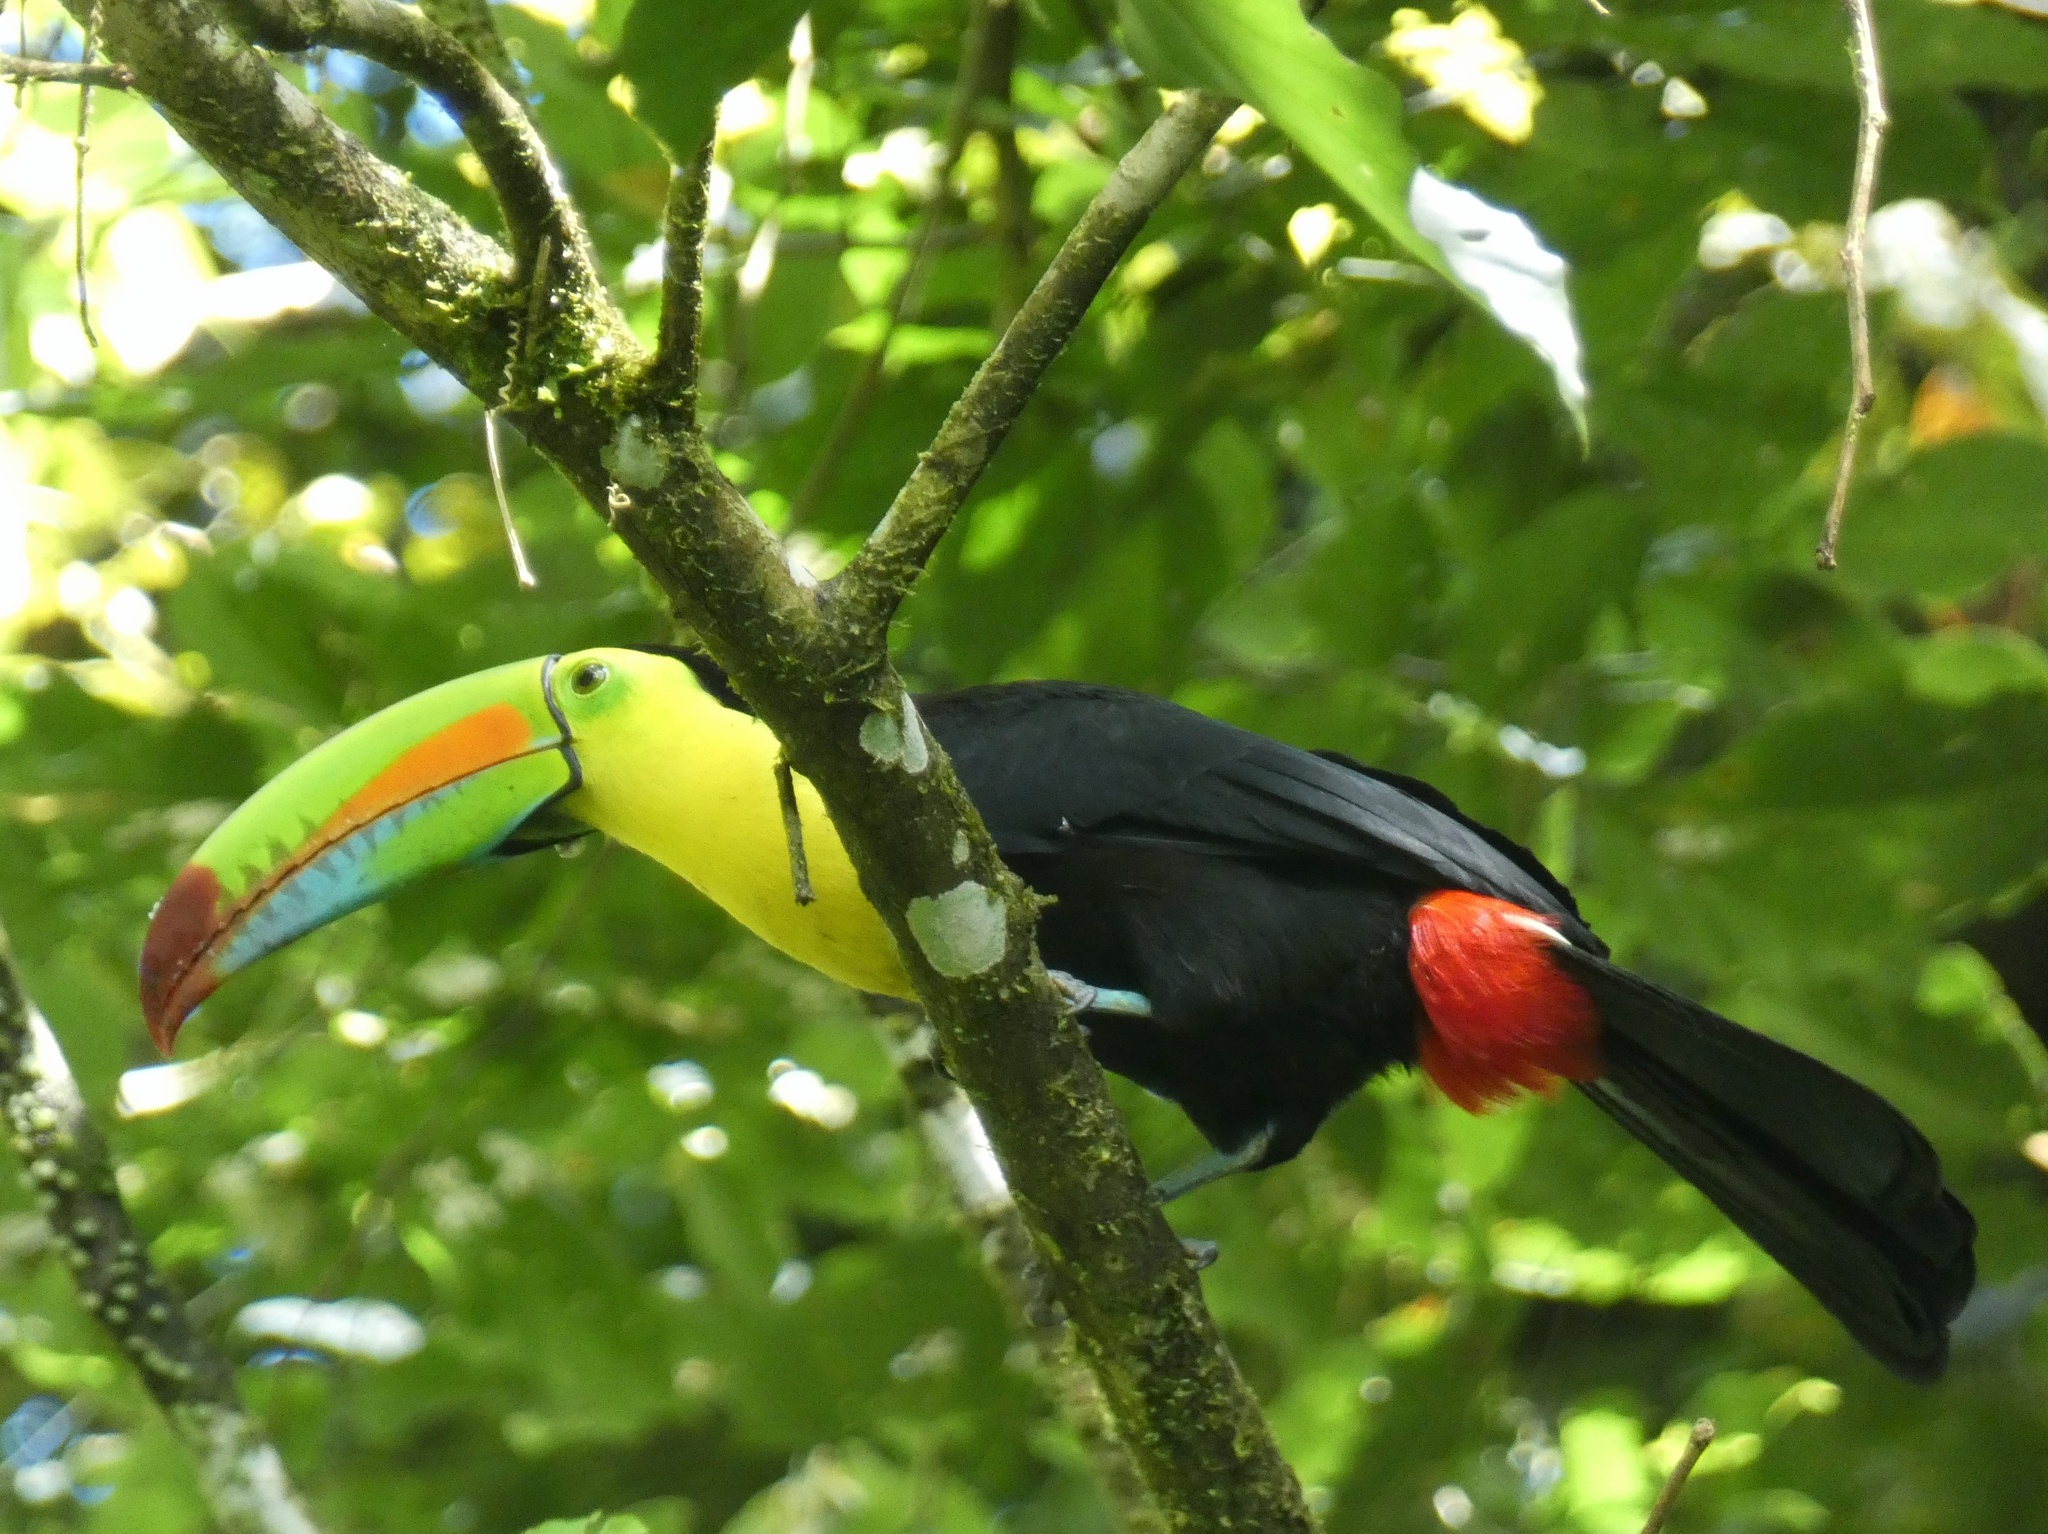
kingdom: Animalia
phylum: Chordata
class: Aves
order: Piciformes
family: Ramphastidae
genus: Ramphastos
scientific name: Ramphastos sulfuratus
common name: Keel-billed toucan
